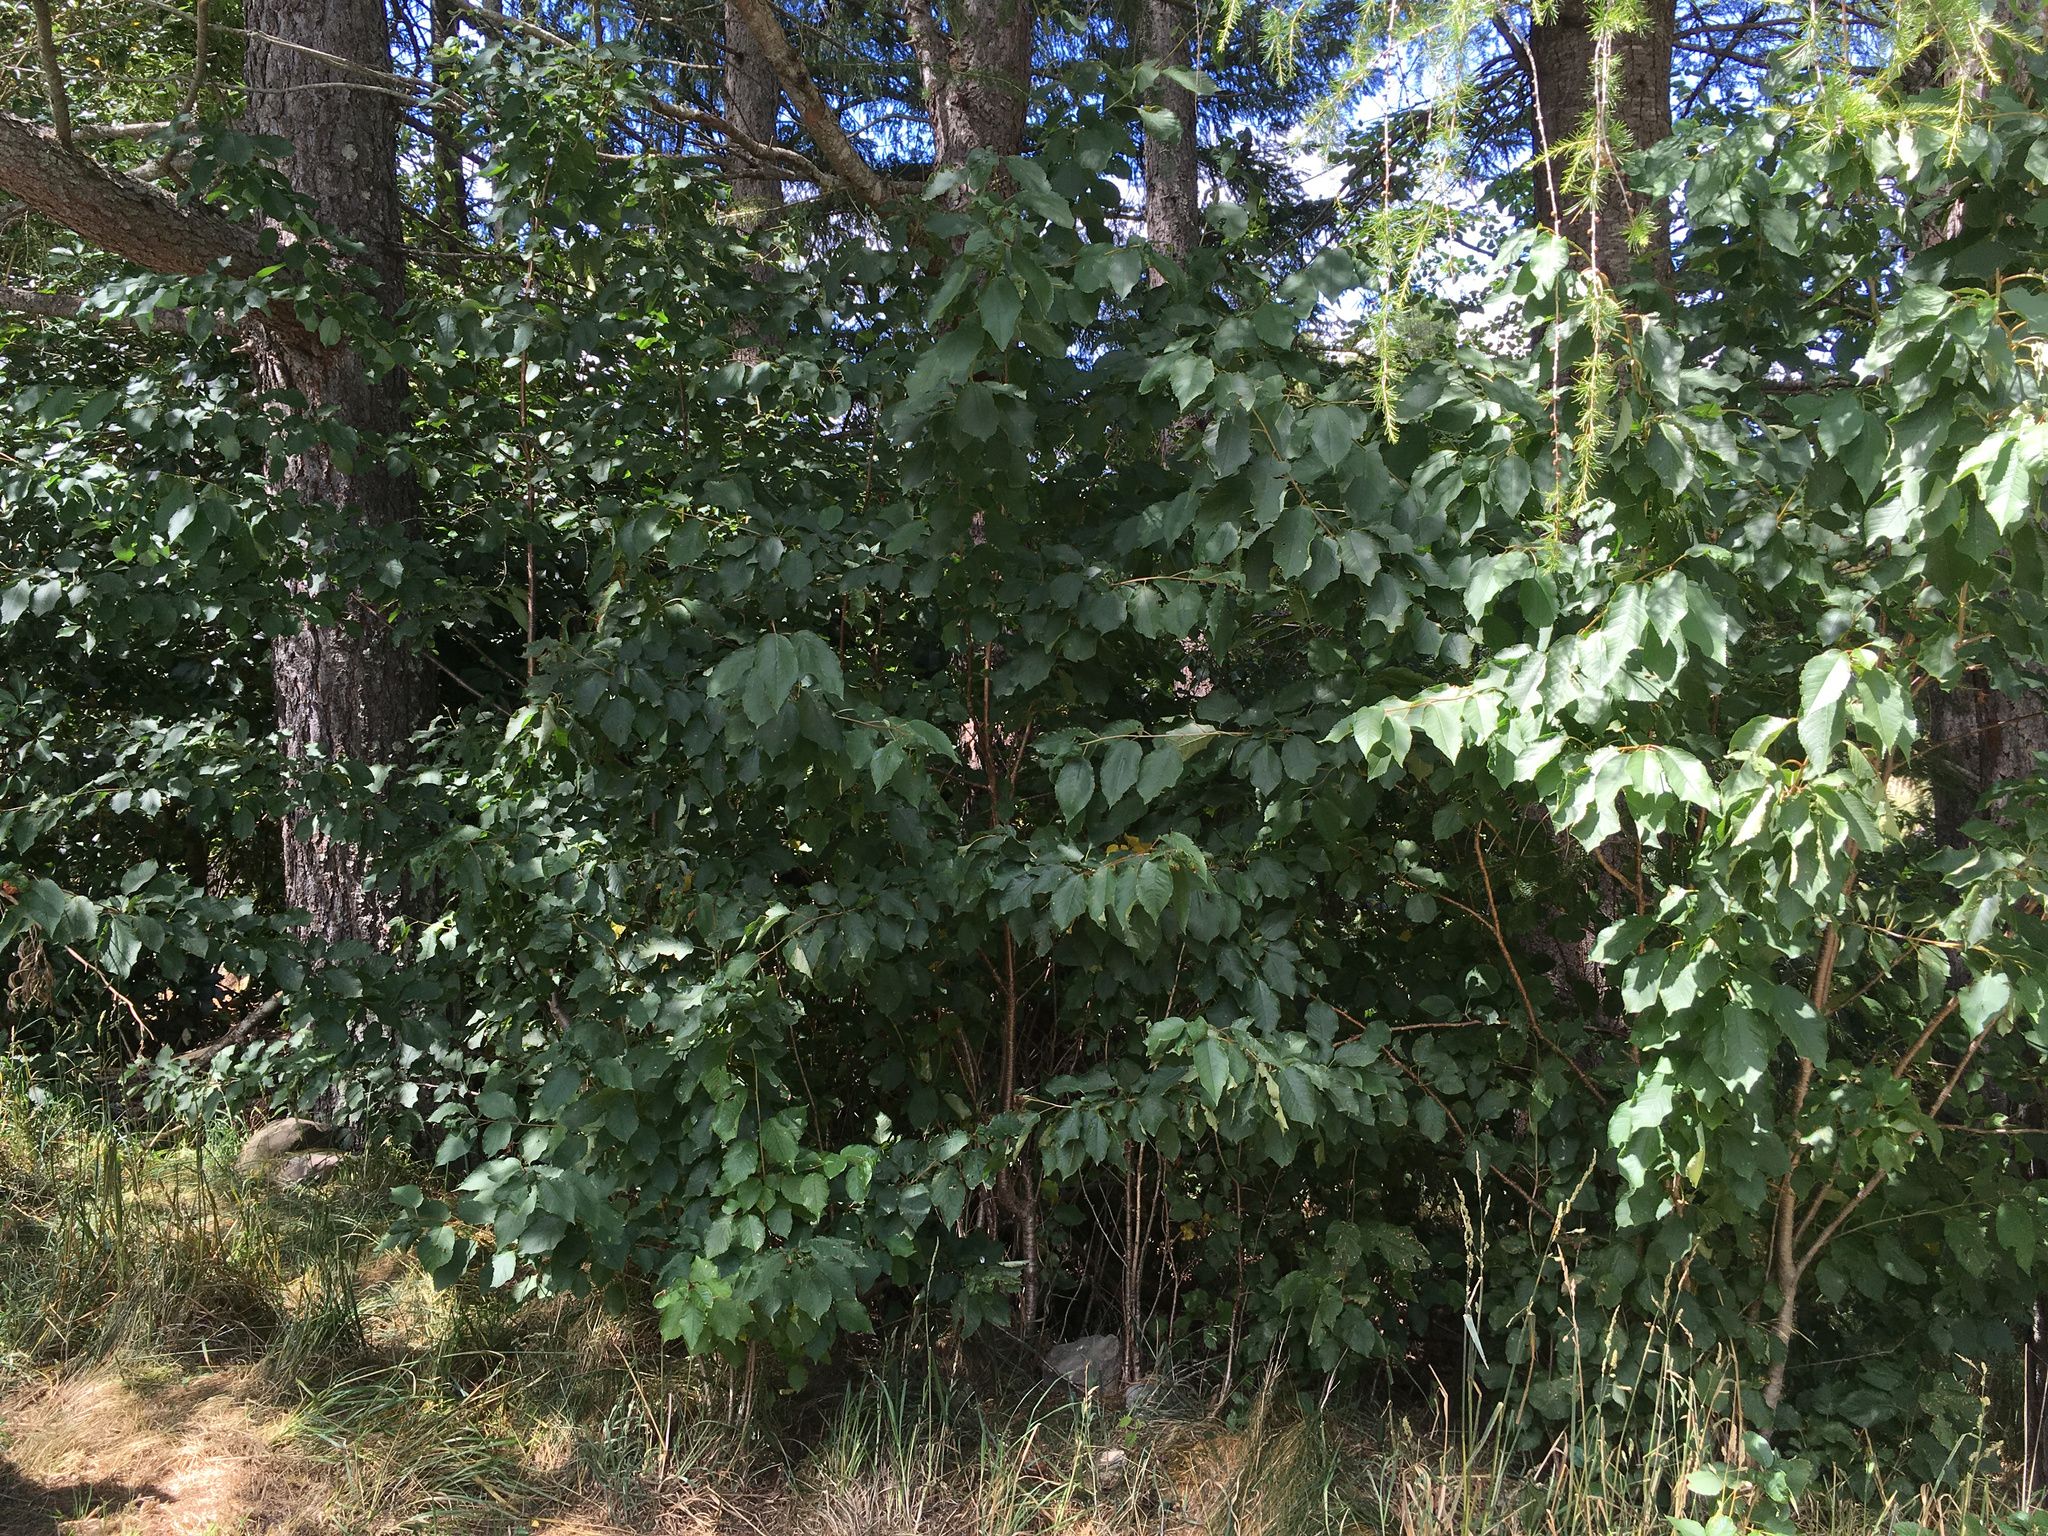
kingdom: Plantae
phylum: Tracheophyta
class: Magnoliopsida
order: Rosales
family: Rosaceae
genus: Prunus
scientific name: Prunus avium
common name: Sweet cherry
